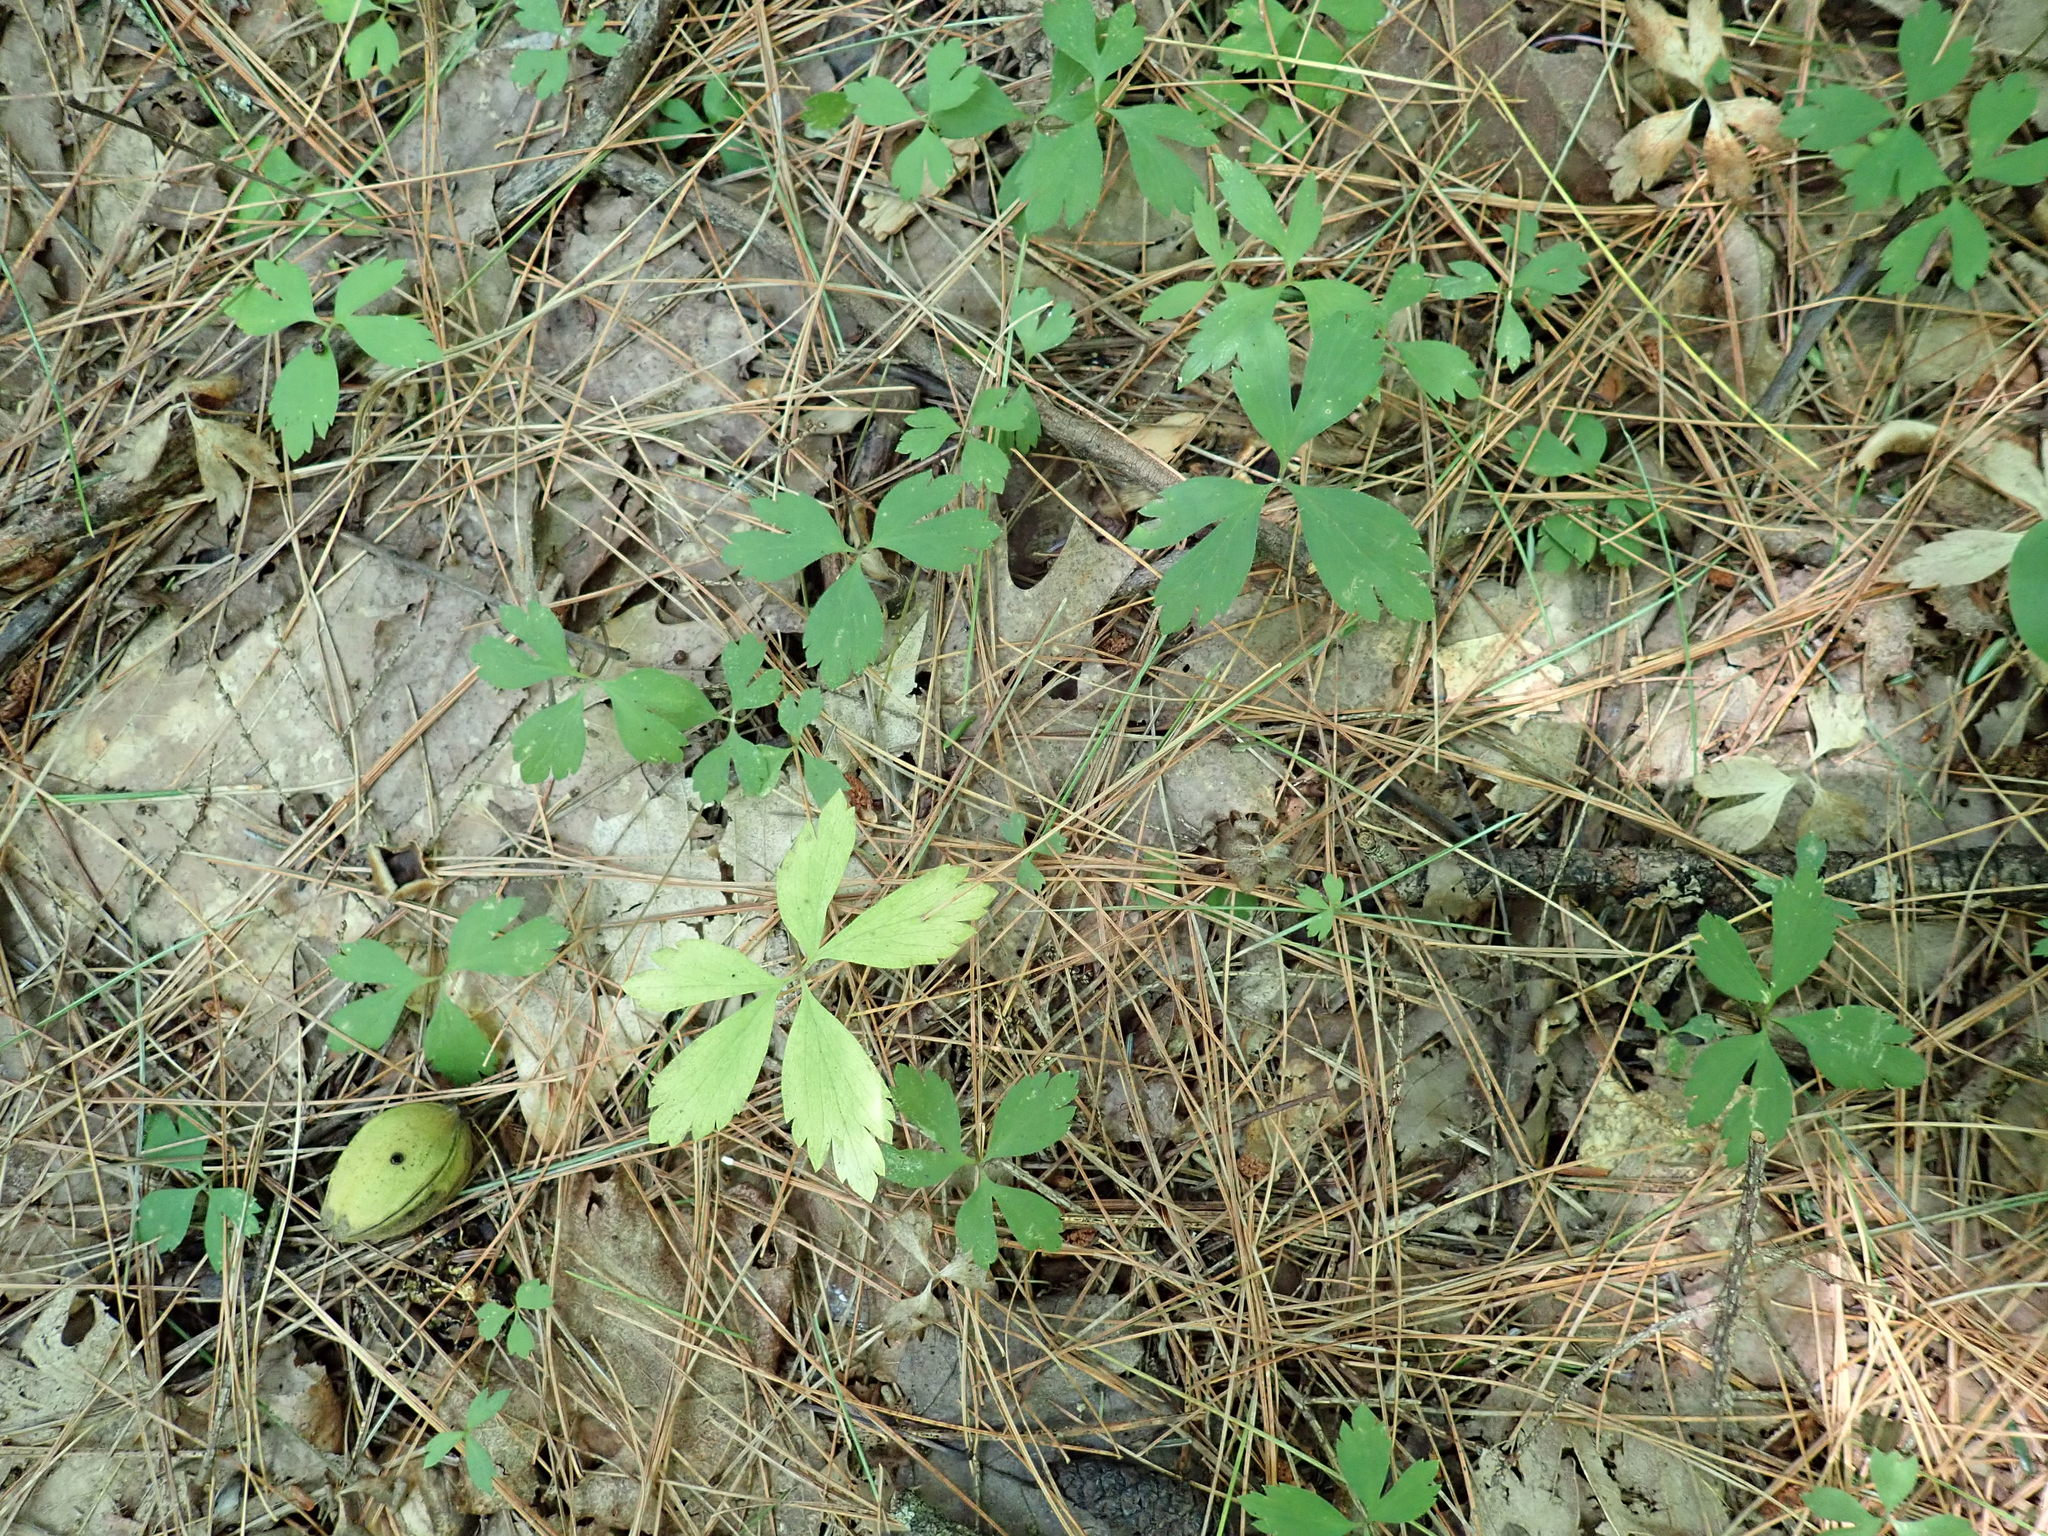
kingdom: Plantae
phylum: Tracheophyta
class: Magnoliopsida
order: Ranunculales
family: Ranunculaceae
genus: Anemone
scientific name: Anemone quinquefolia
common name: Wood anemone
